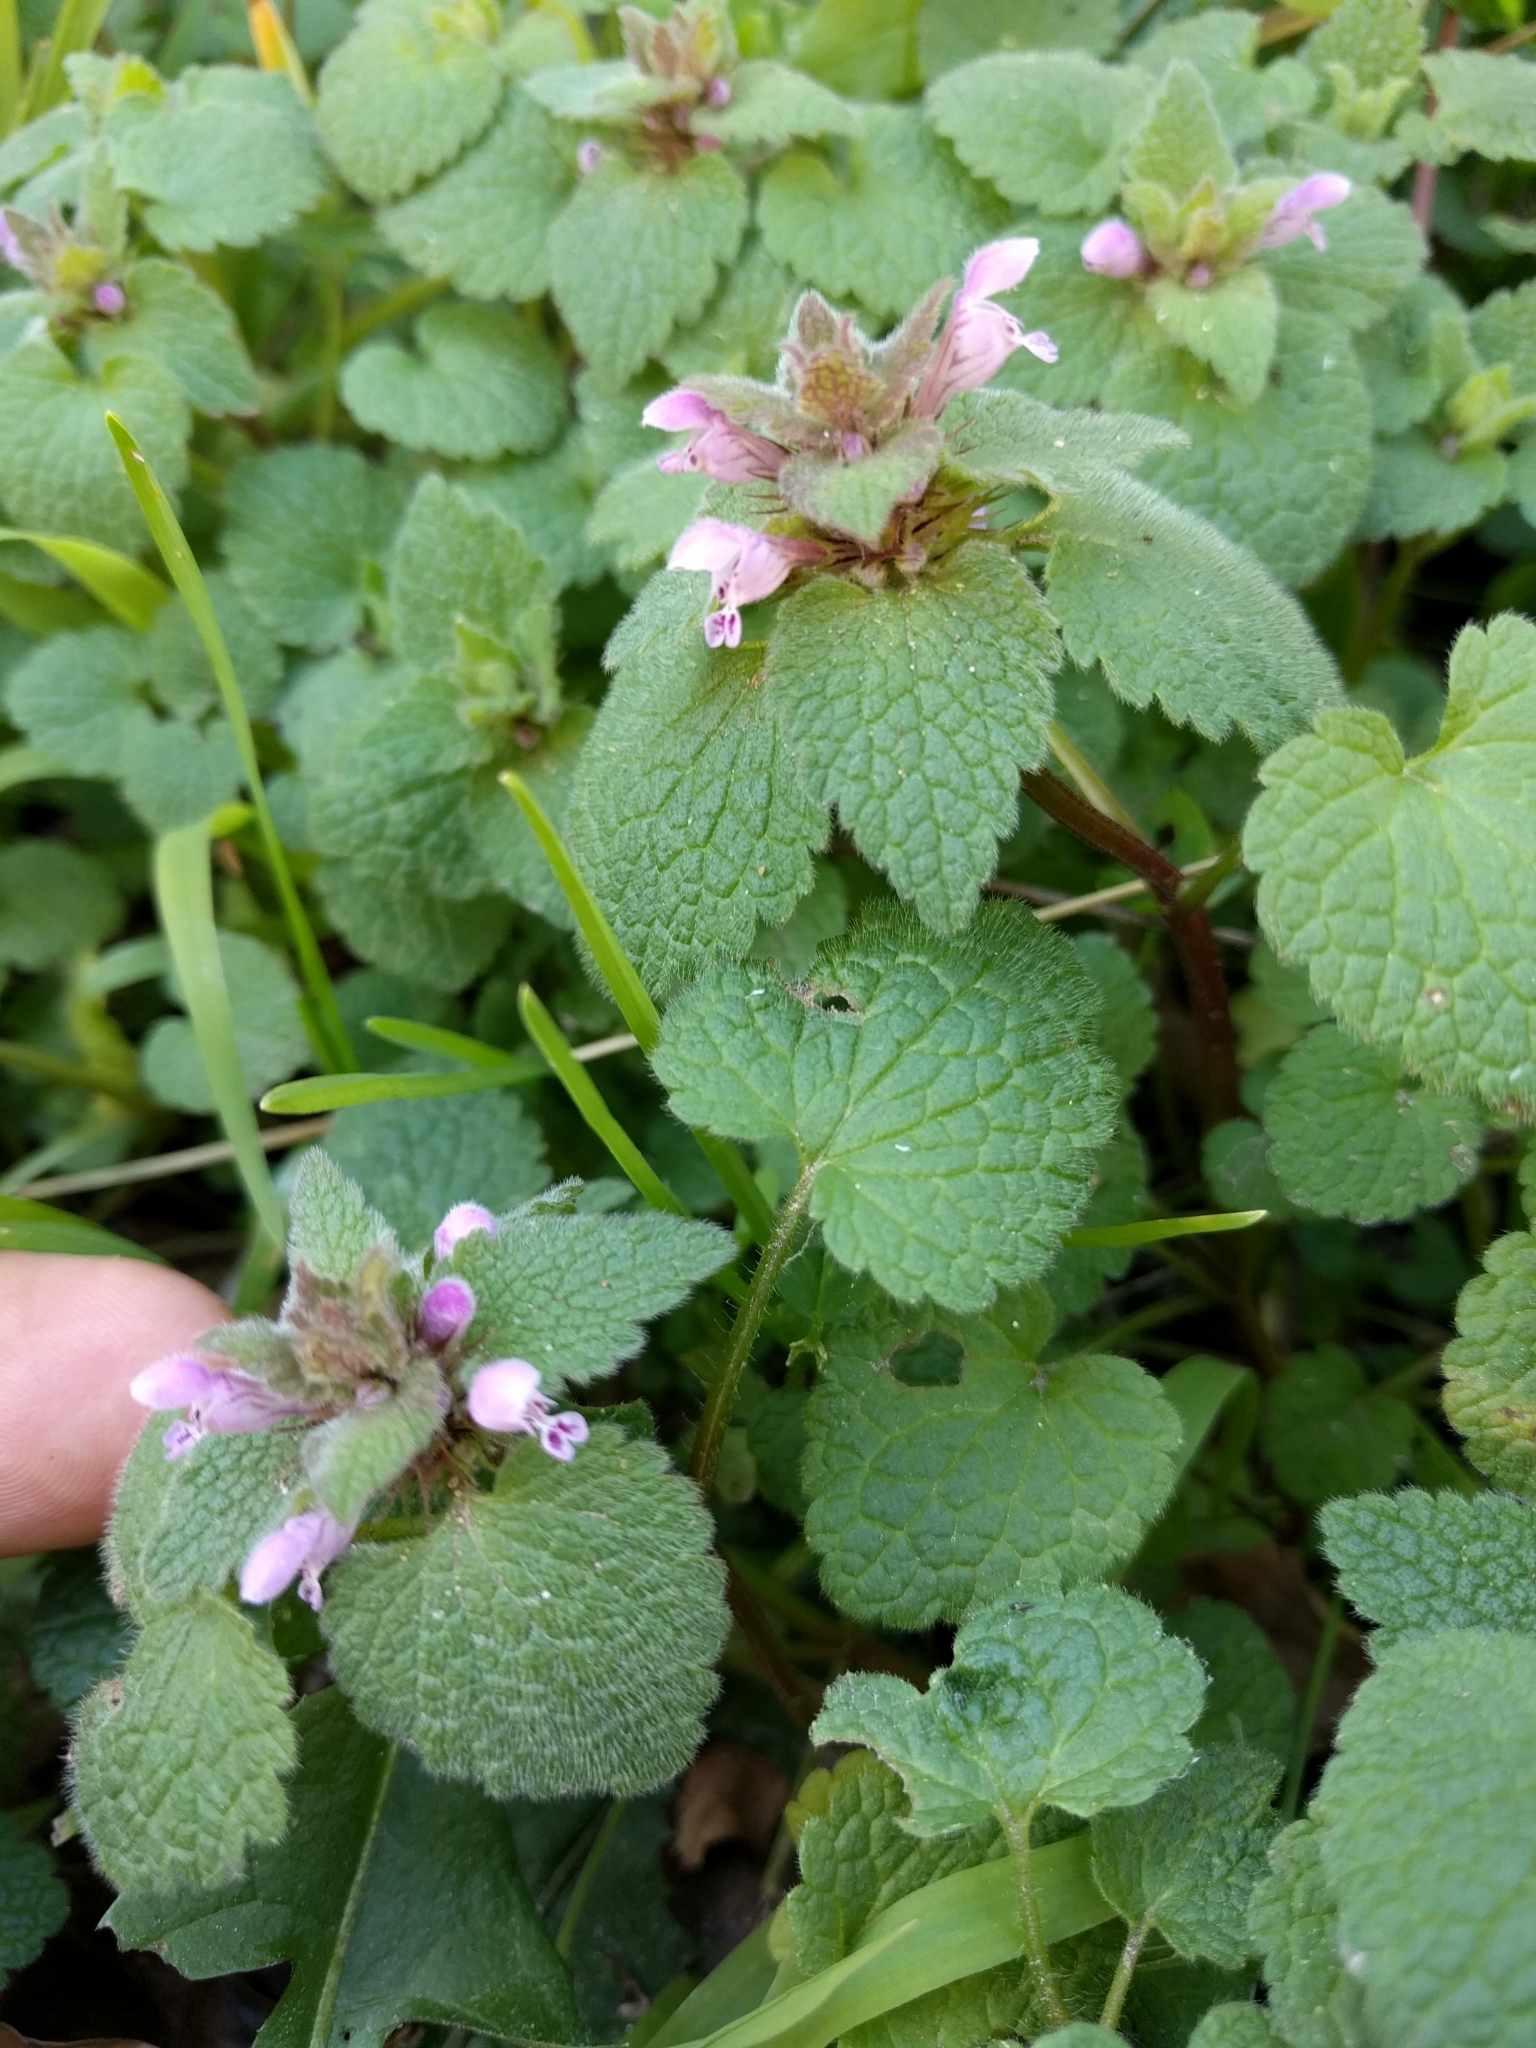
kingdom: Plantae
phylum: Tracheophyta
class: Magnoliopsida
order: Lamiales
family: Lamiaceae
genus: Lamium
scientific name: Lamium purpureum
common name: Red dead-nettle
